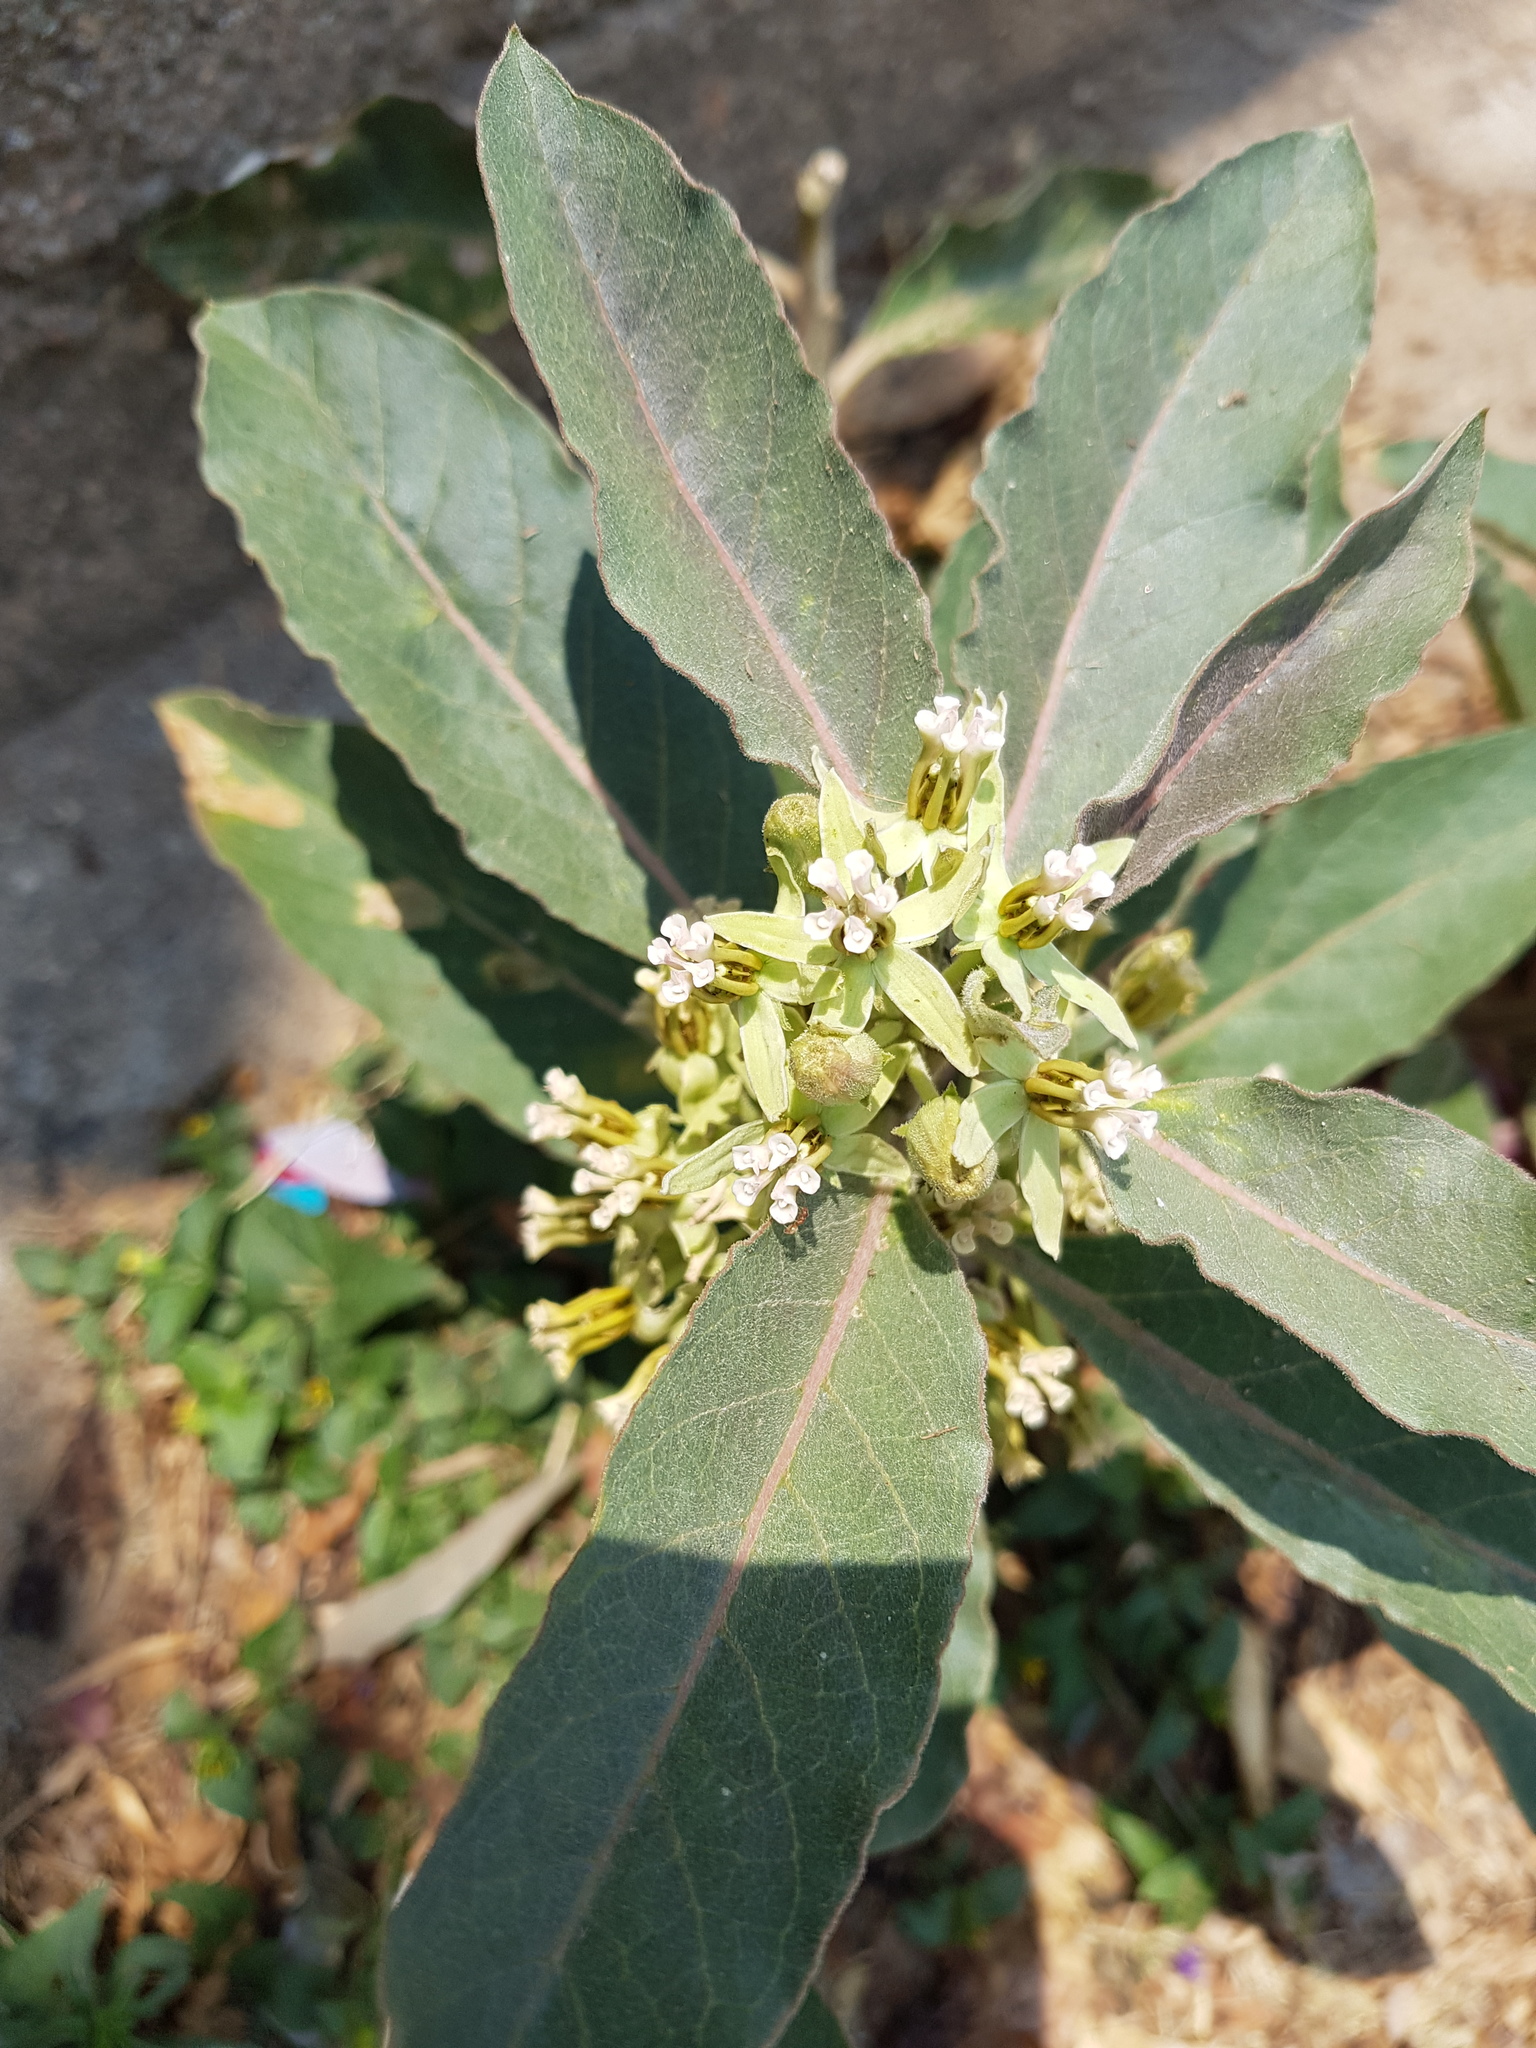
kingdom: Plantae
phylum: Tracheophyta
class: Magnoliopsida
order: Gentianales
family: Apocynaceae
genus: Asclepias
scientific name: Asclepias oenotheroides
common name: Zizotes milkweed
